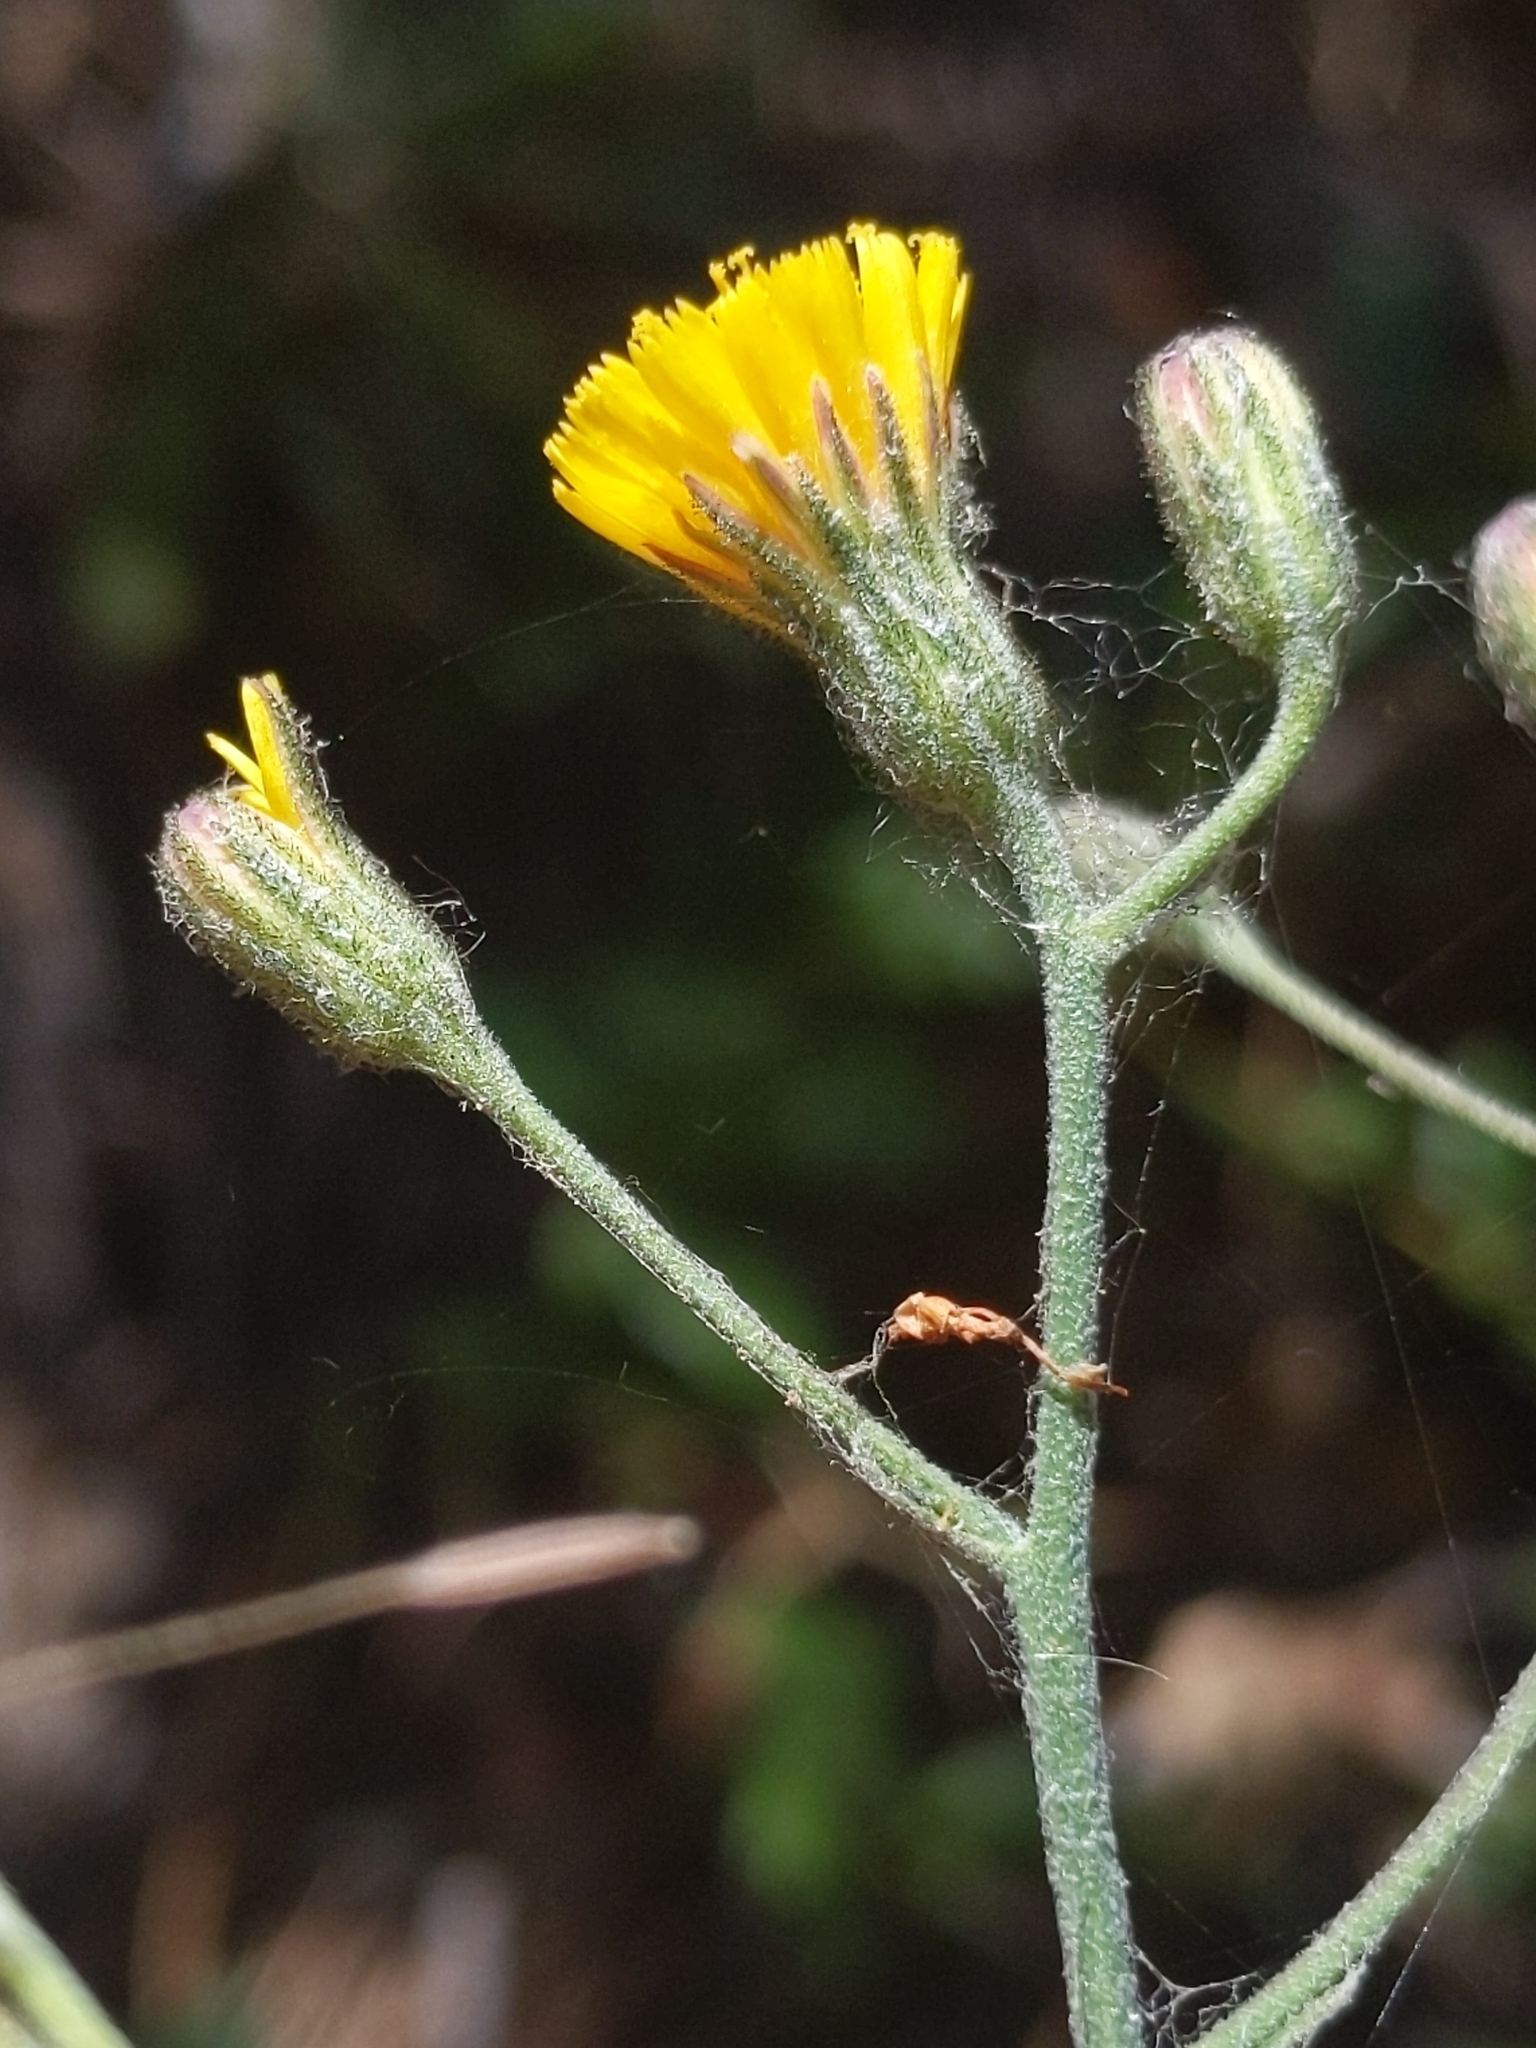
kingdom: Plantae
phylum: Tracheophyta
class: Magnoliopsida
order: Asterales
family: Asteraceae
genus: Hieracium
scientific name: Hieracium argutum
